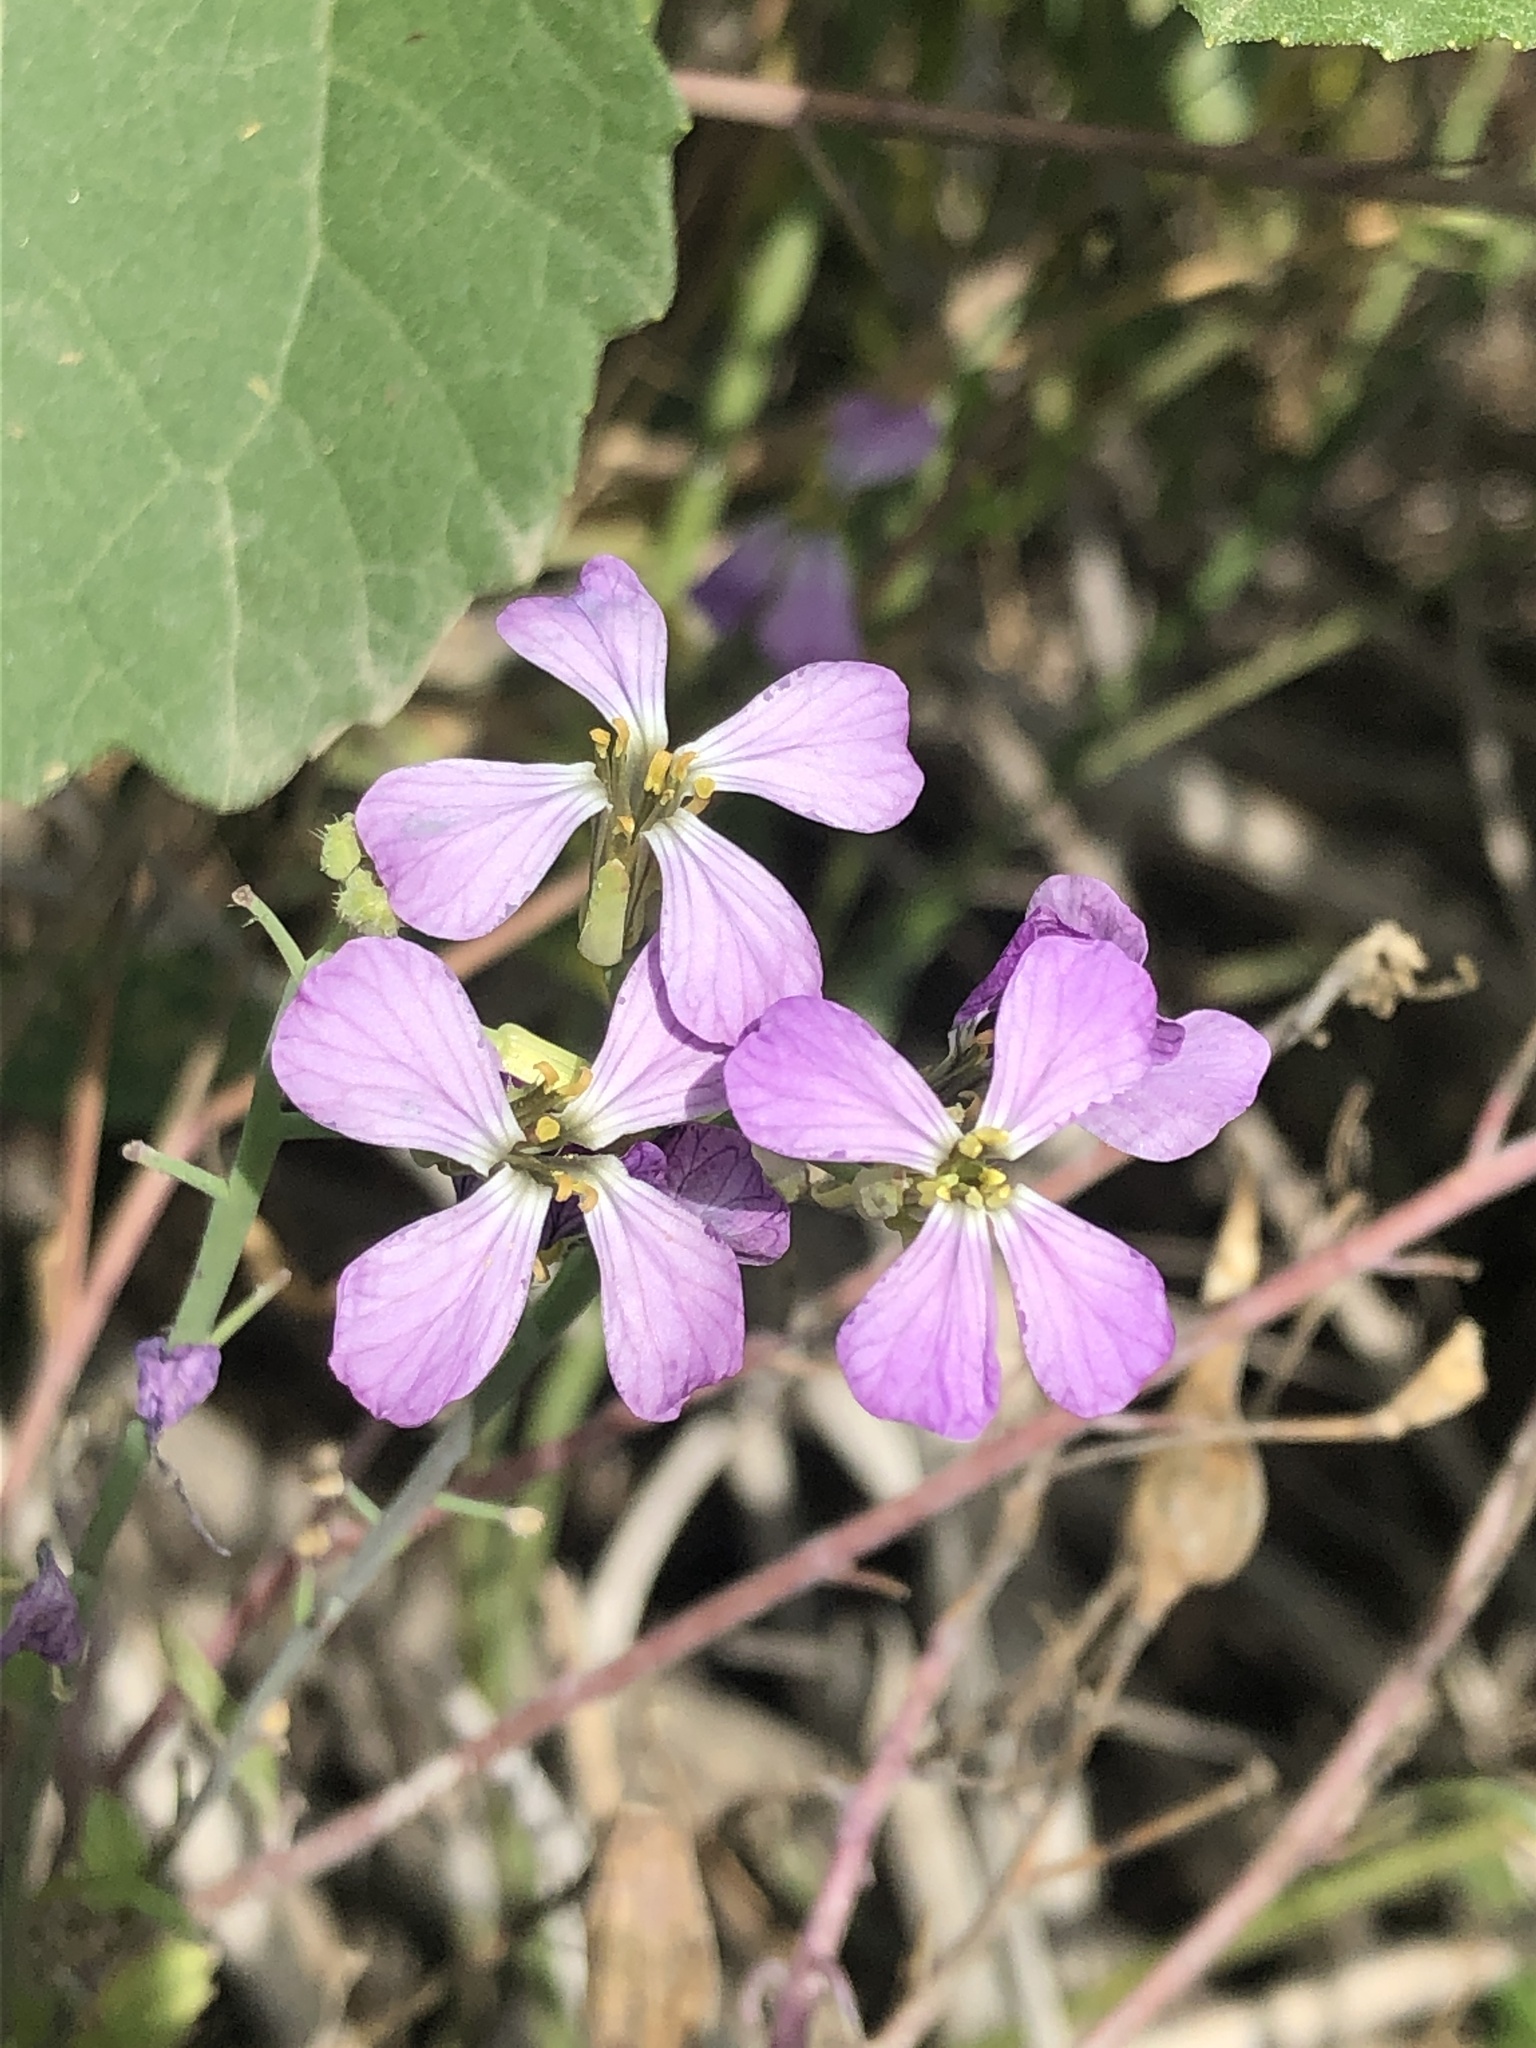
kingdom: Plantae
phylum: Tracheophyta
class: Magnoliopsida
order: Brassicales
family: Brassicaceae
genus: Raphanus
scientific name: Raphanus sativus
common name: Cultivated radish
